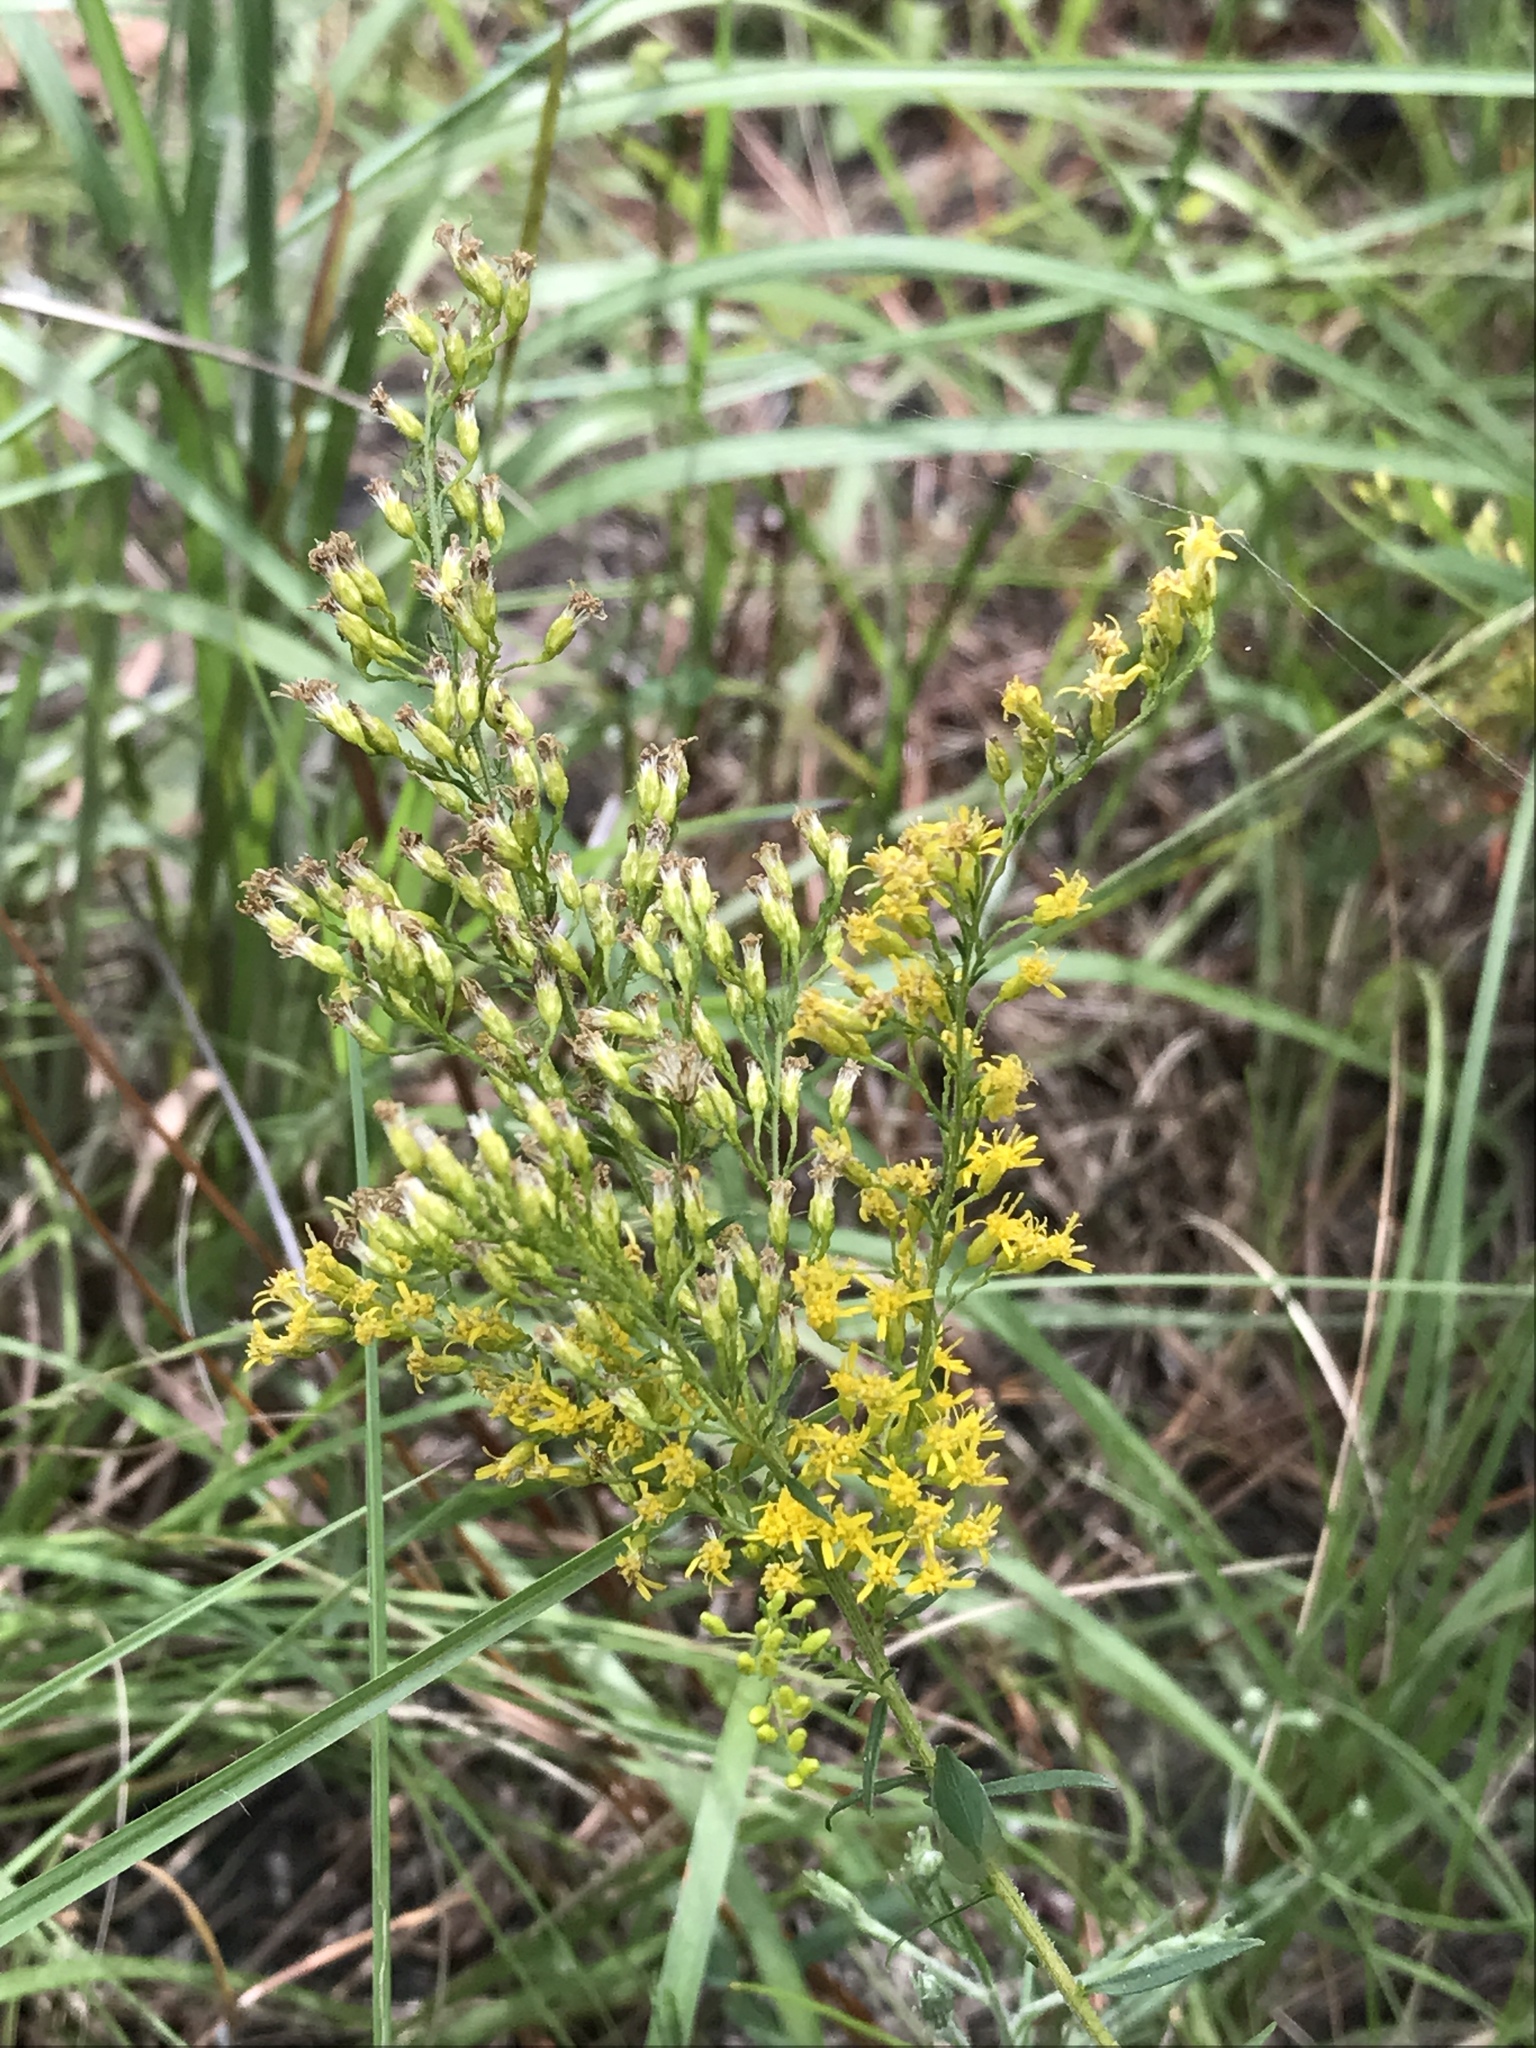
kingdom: Plantae
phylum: Tracheophyta
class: Magnoliopsida
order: Asterales
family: Asteraceae
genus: Solidago
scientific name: Solidago tortifolia
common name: Twisted-leaf goldenrod
